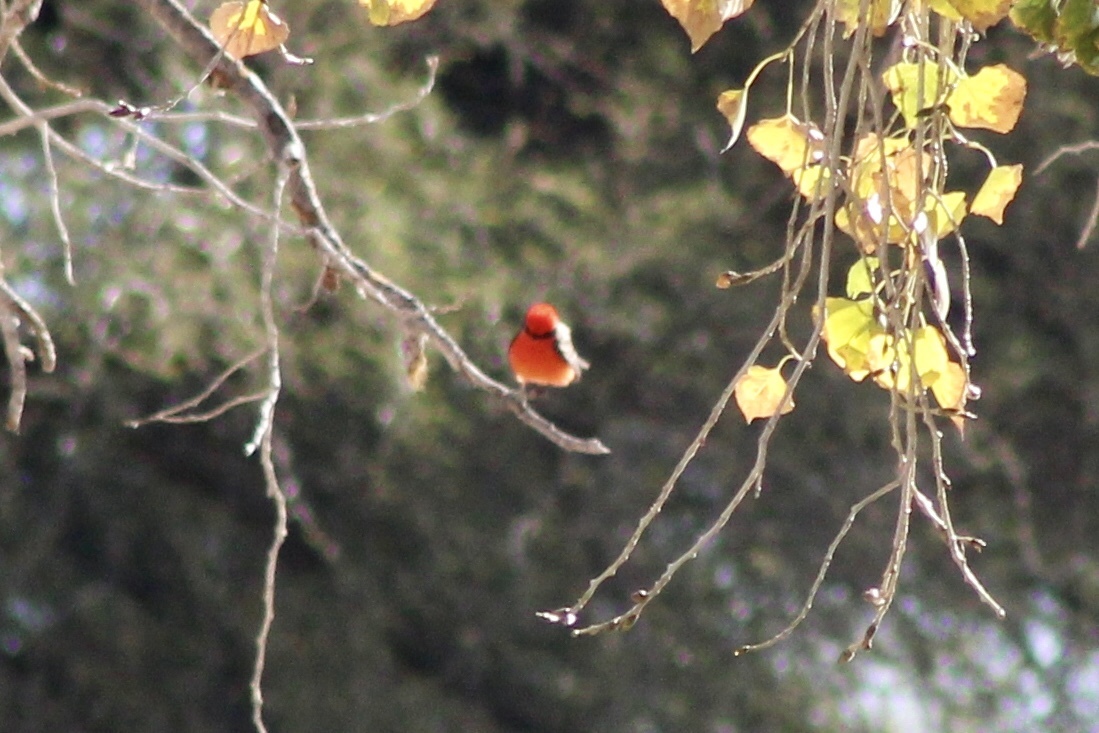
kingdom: Animalia
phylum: Chordata
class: Aves
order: Passeriformes
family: Tyrannidae
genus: Pyrocephalus
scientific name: Pyrocephalus rubinus
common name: Vermilion flycatcher
